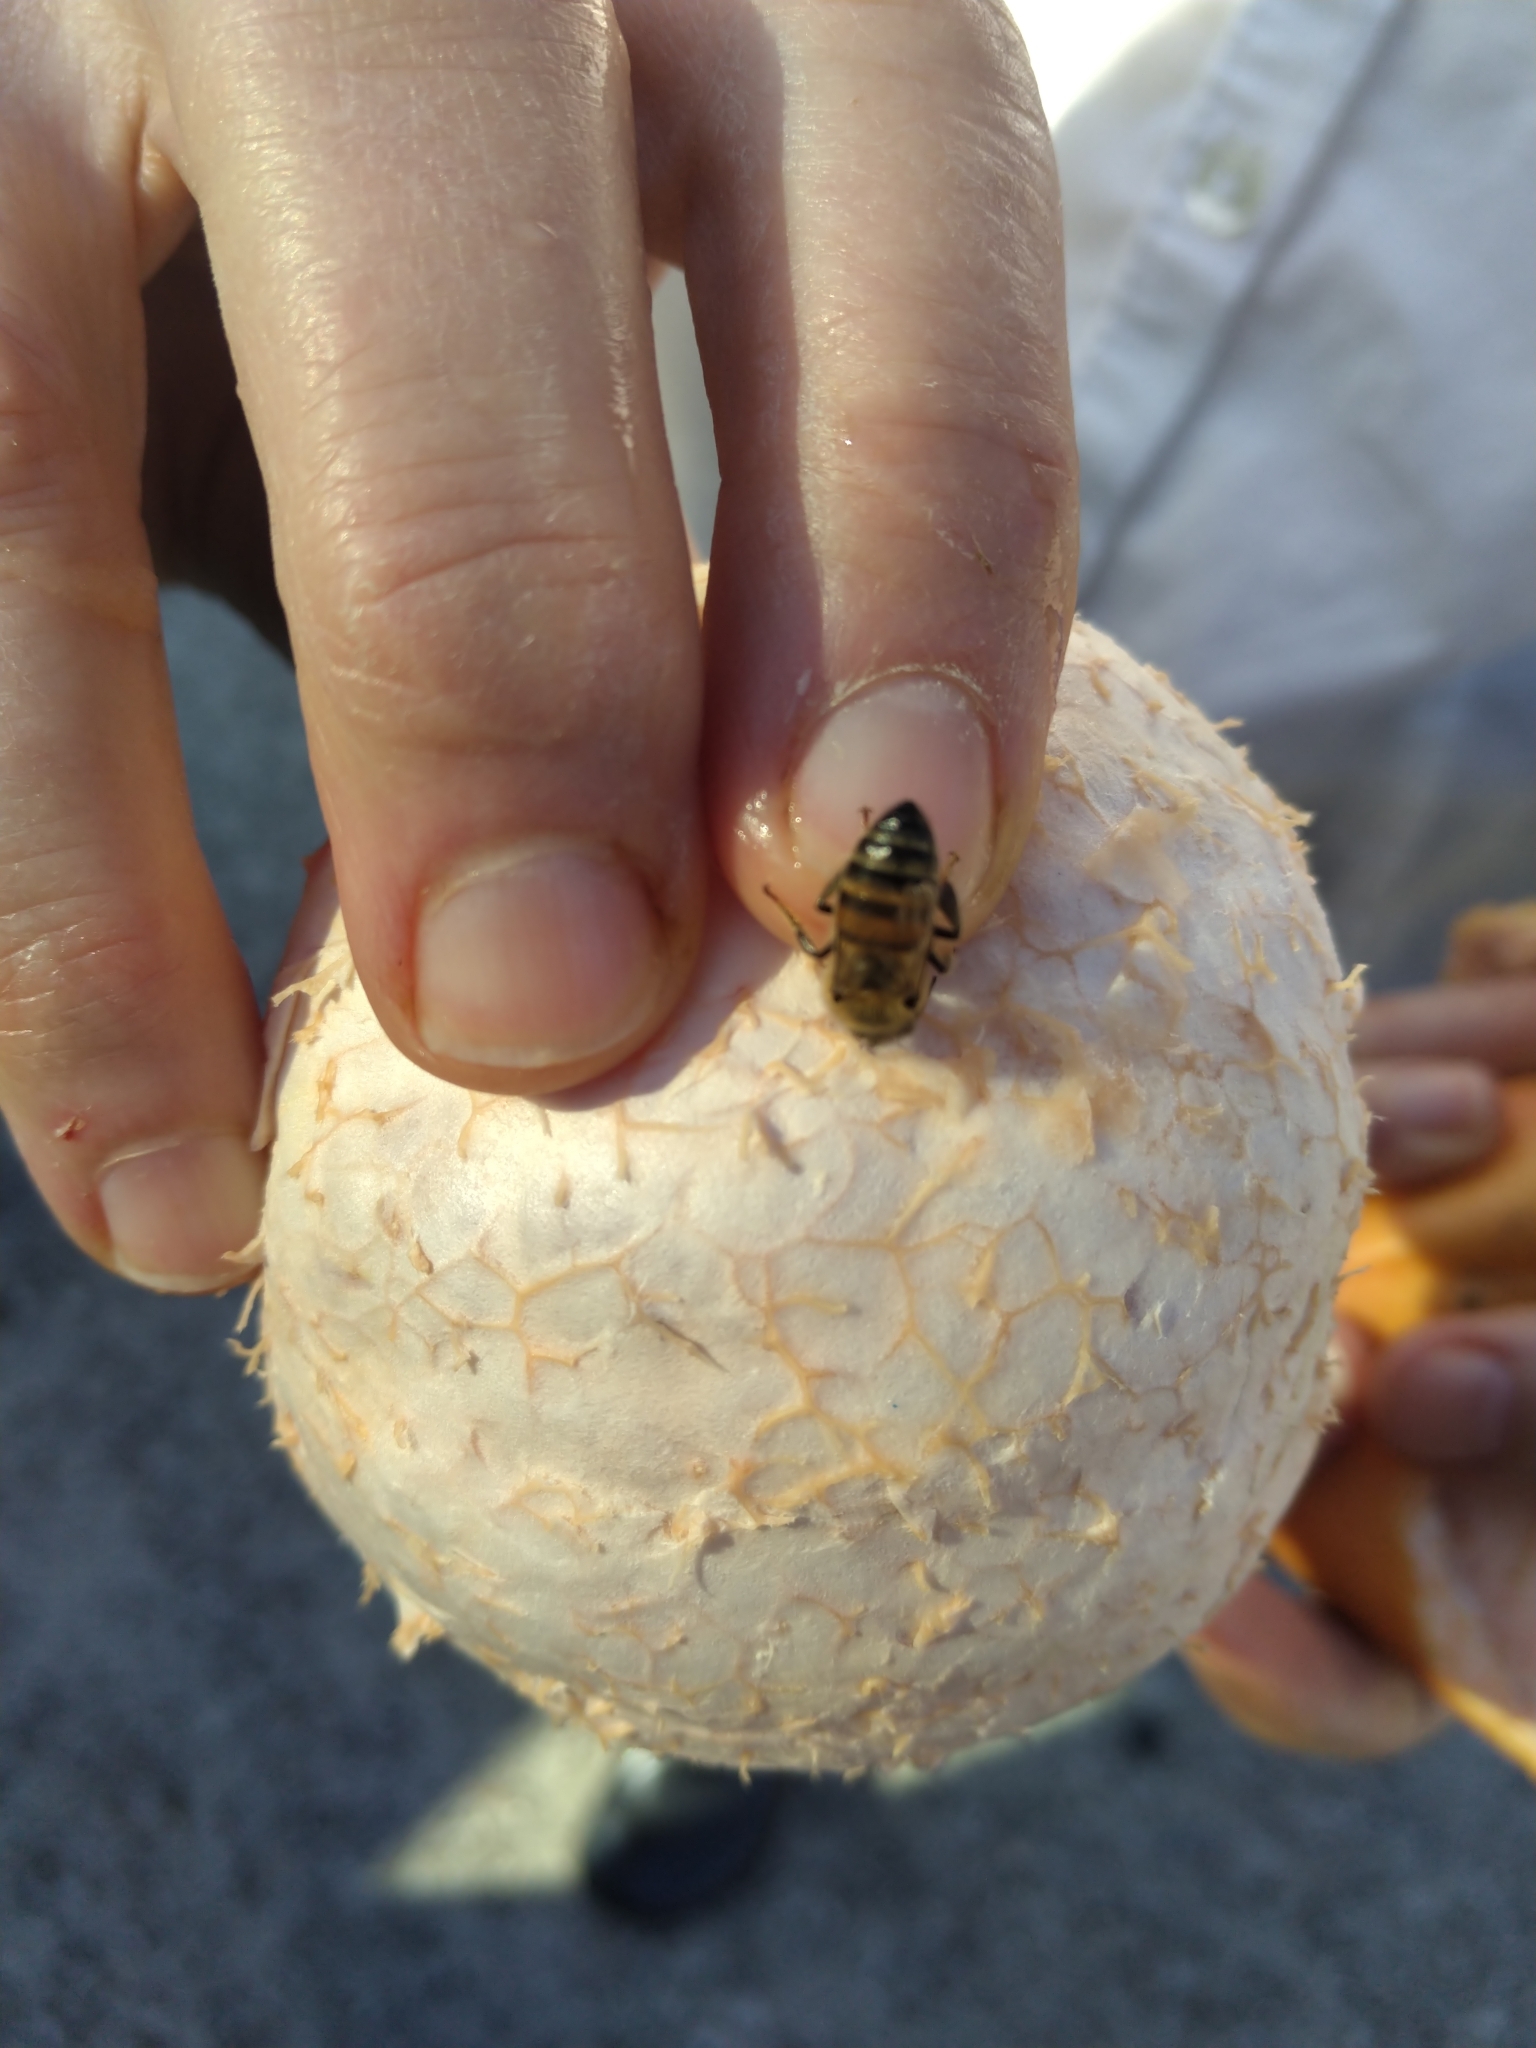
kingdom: Animalia
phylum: Arthropoda
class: Insecta
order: Hymenoptera
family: Apidae
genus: Apis
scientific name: Apis mellifera
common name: Honey bee
